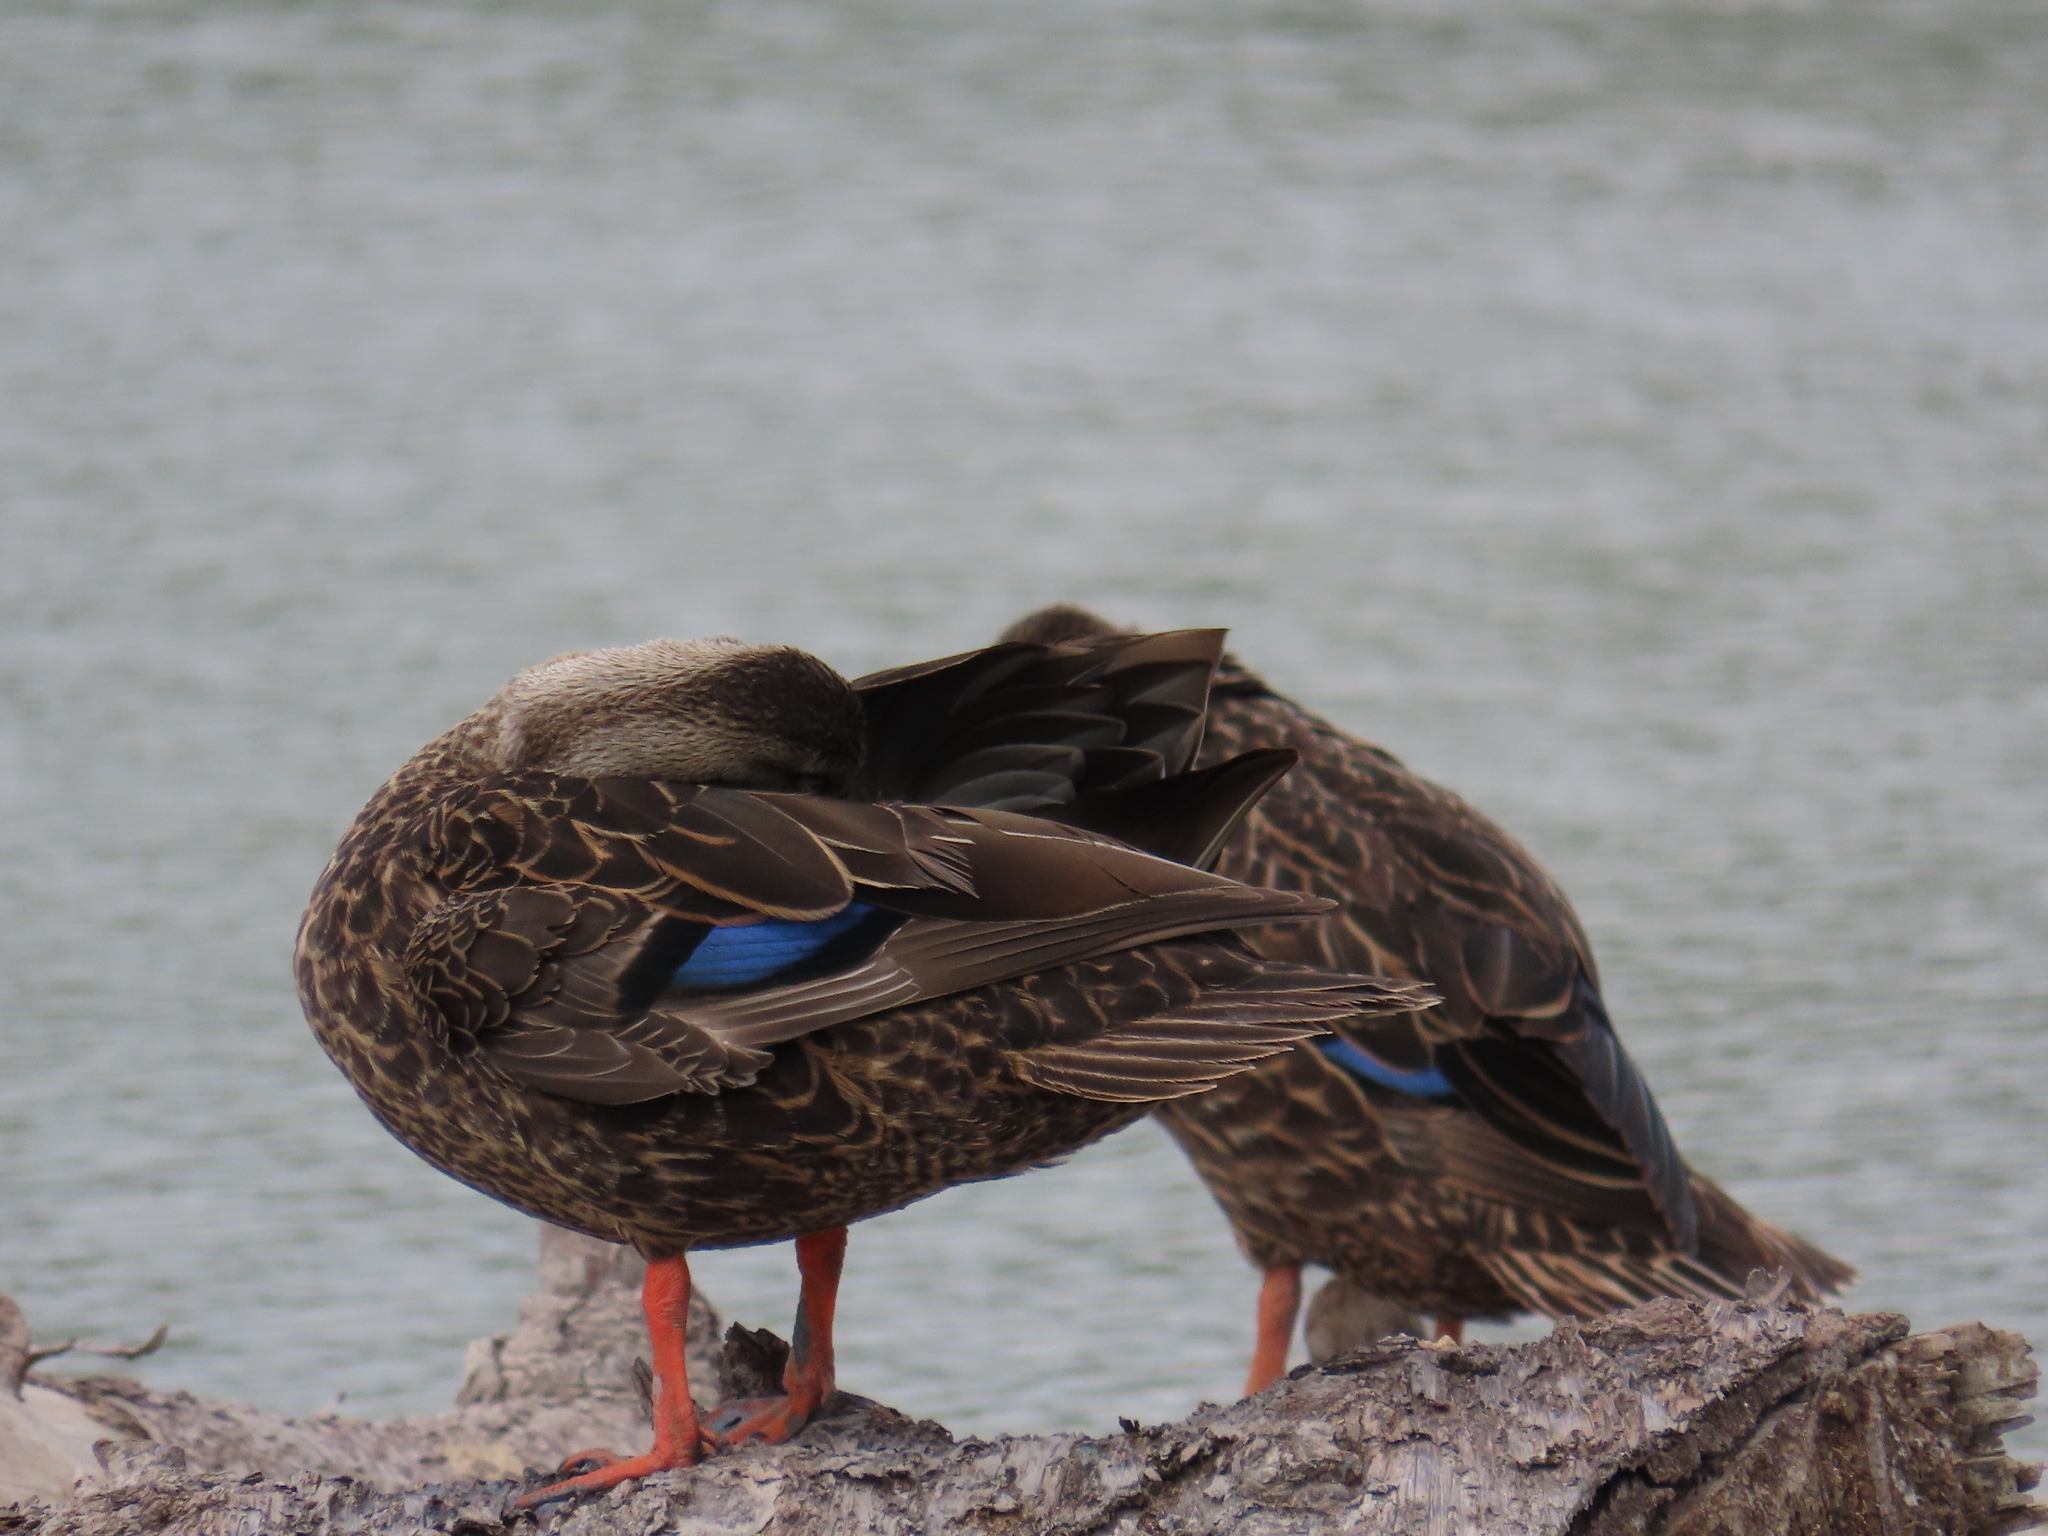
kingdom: Animalia
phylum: Chordata
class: Aves
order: Anseriformes
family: Anatidae
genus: Anas
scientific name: Anas fulvigula
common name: Mottled duck
